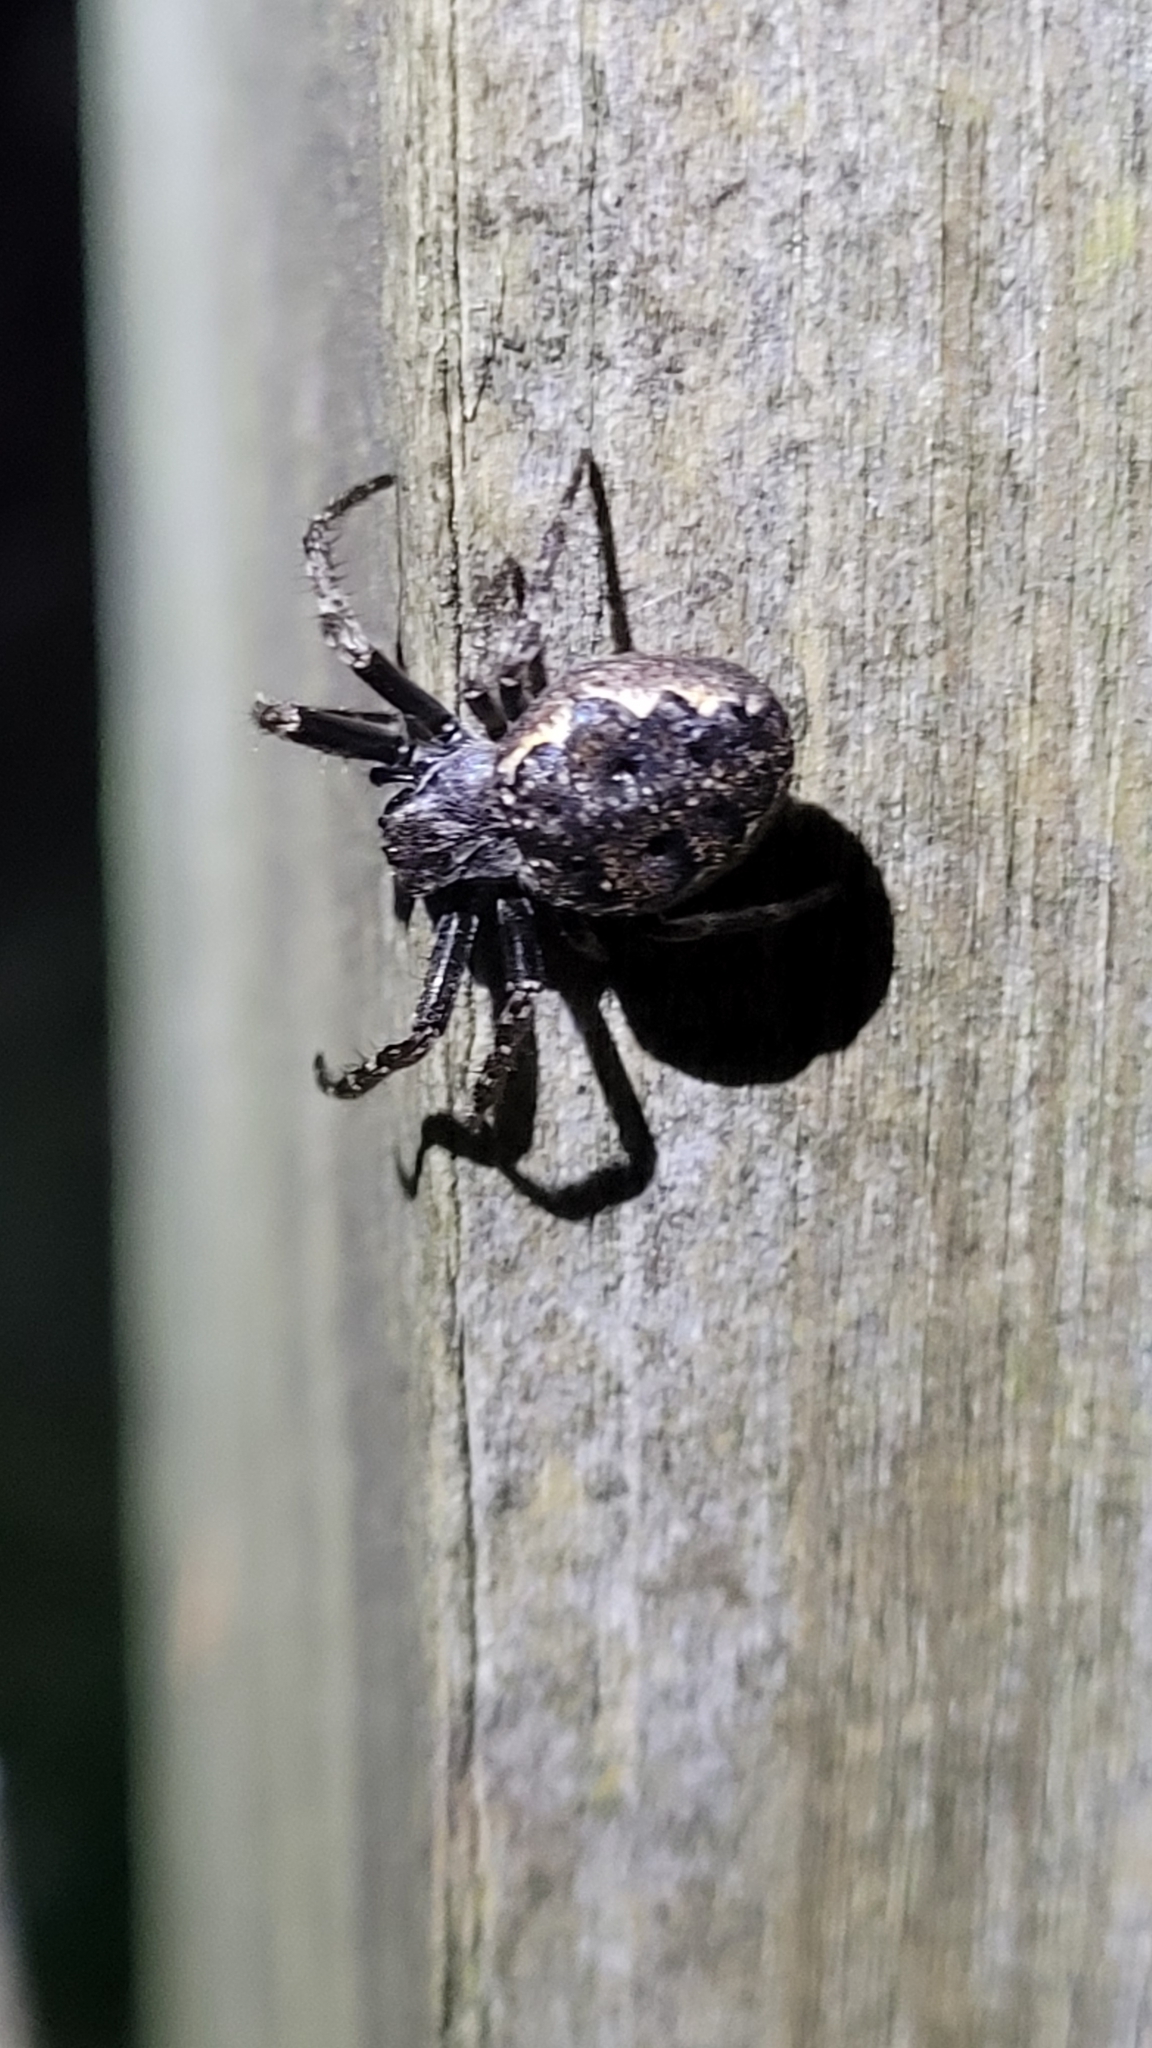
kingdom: Animalia
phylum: Arthropoda
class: Arachnida
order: Araneae
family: Araneidae
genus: Nuctenea
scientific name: Nuctenea umbratica
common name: Toad spider
